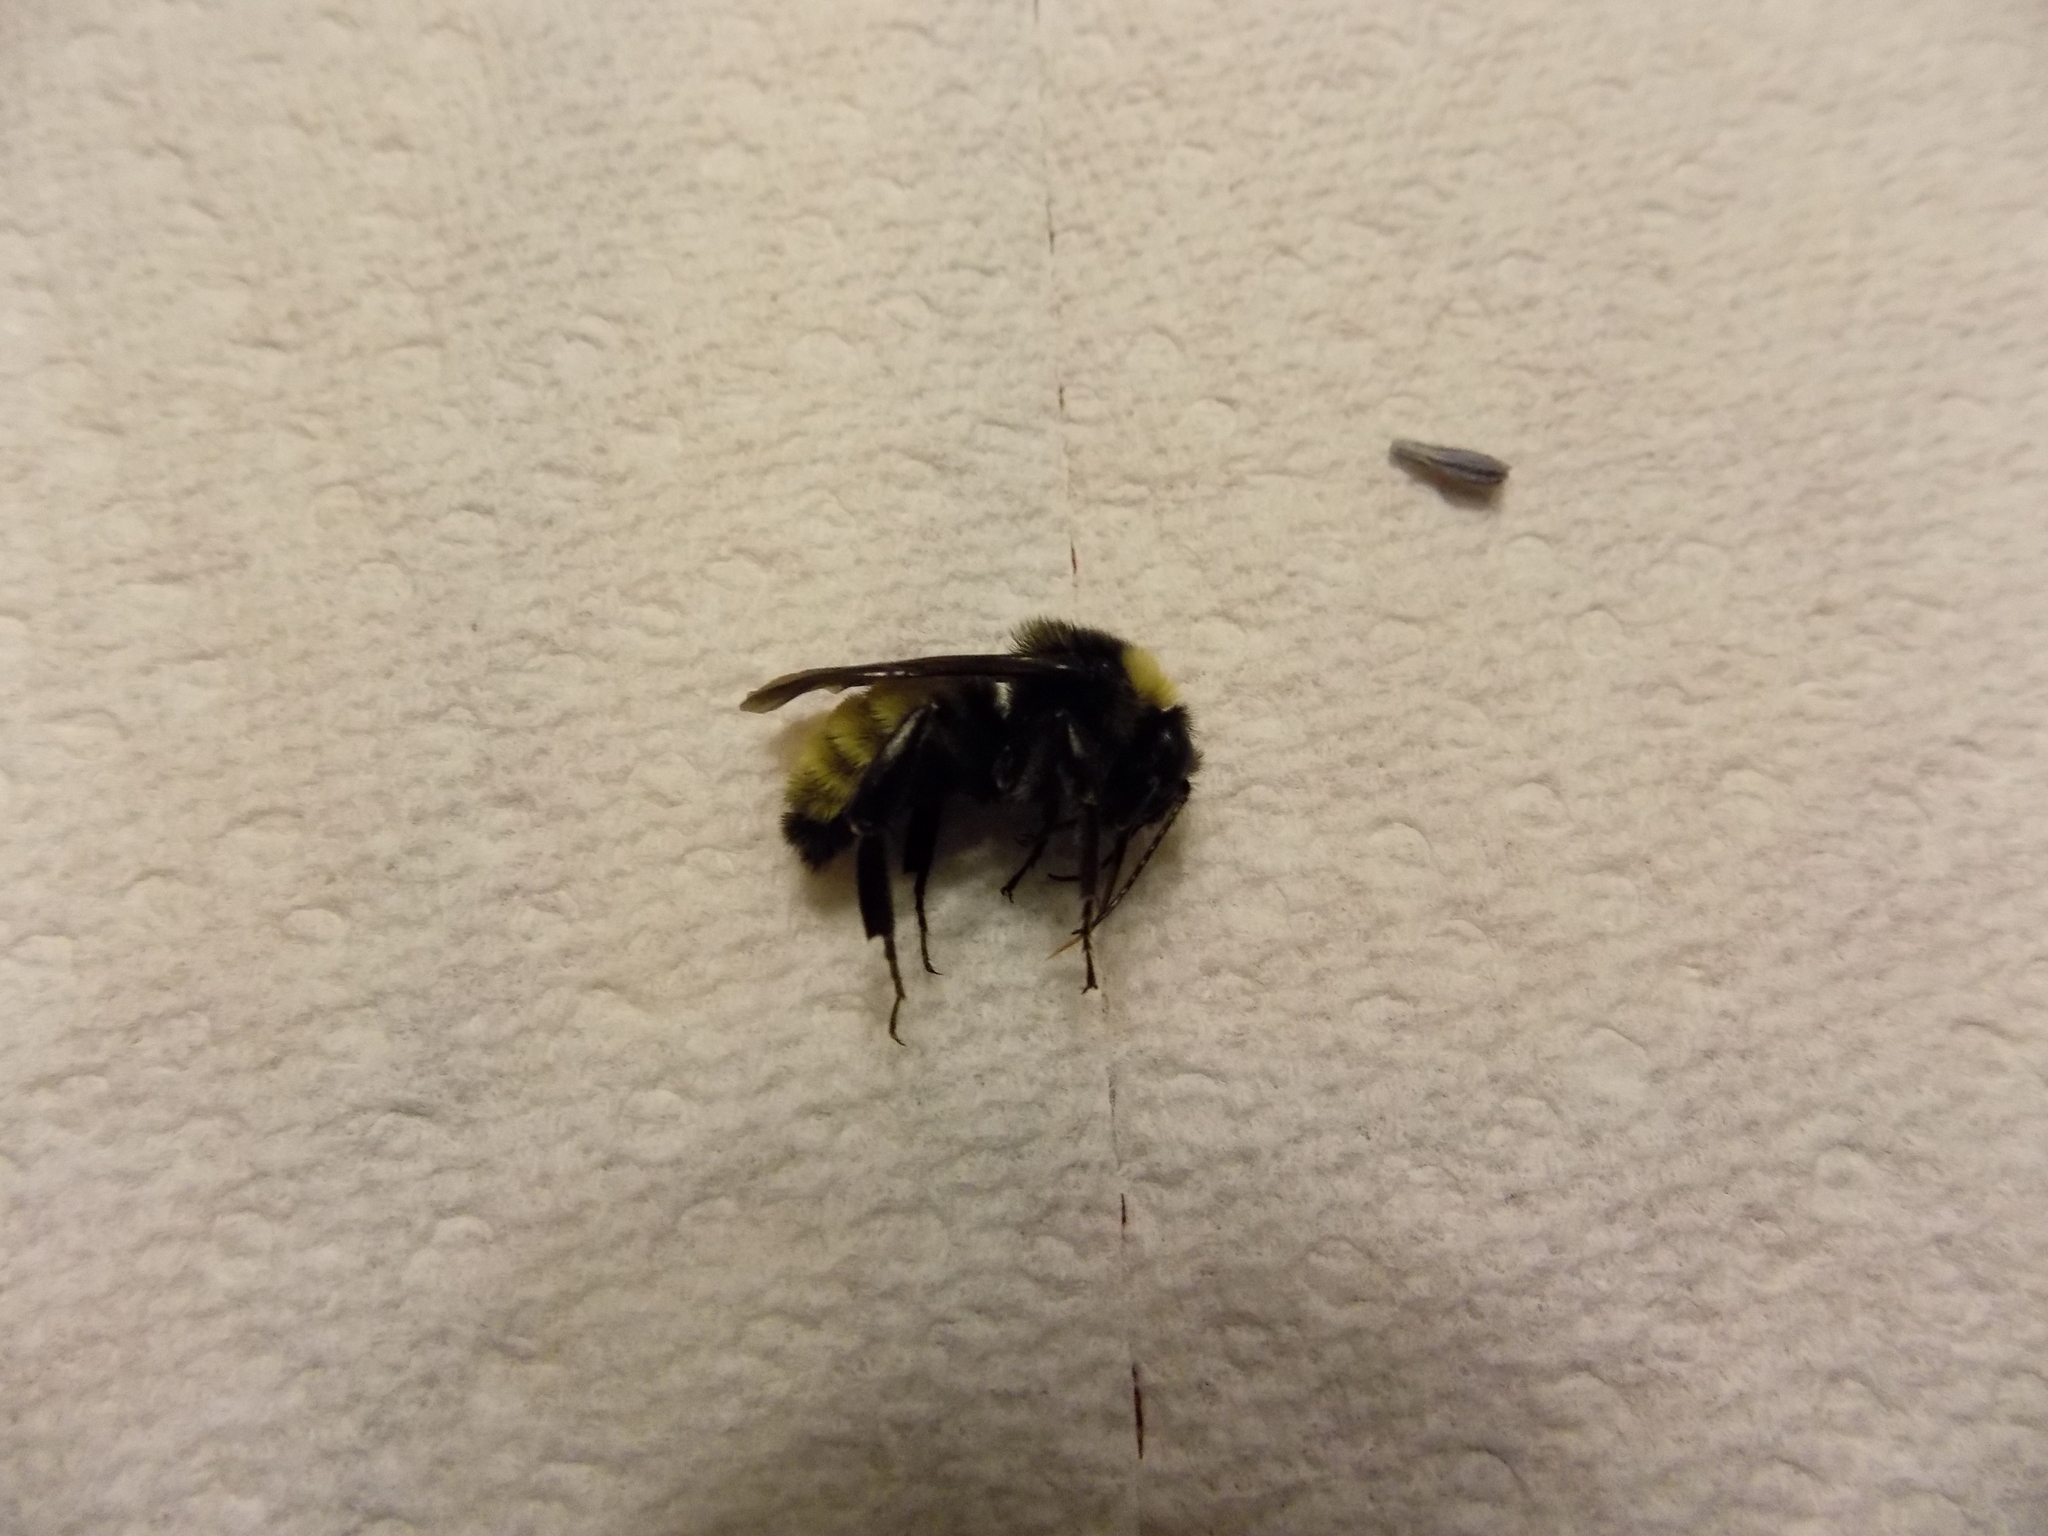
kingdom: Animalia
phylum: Arthropoda
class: Insecta
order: Hymenoptera
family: Apidae
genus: Bombus
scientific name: Bombus pensylvanicus
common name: Bumble bee
